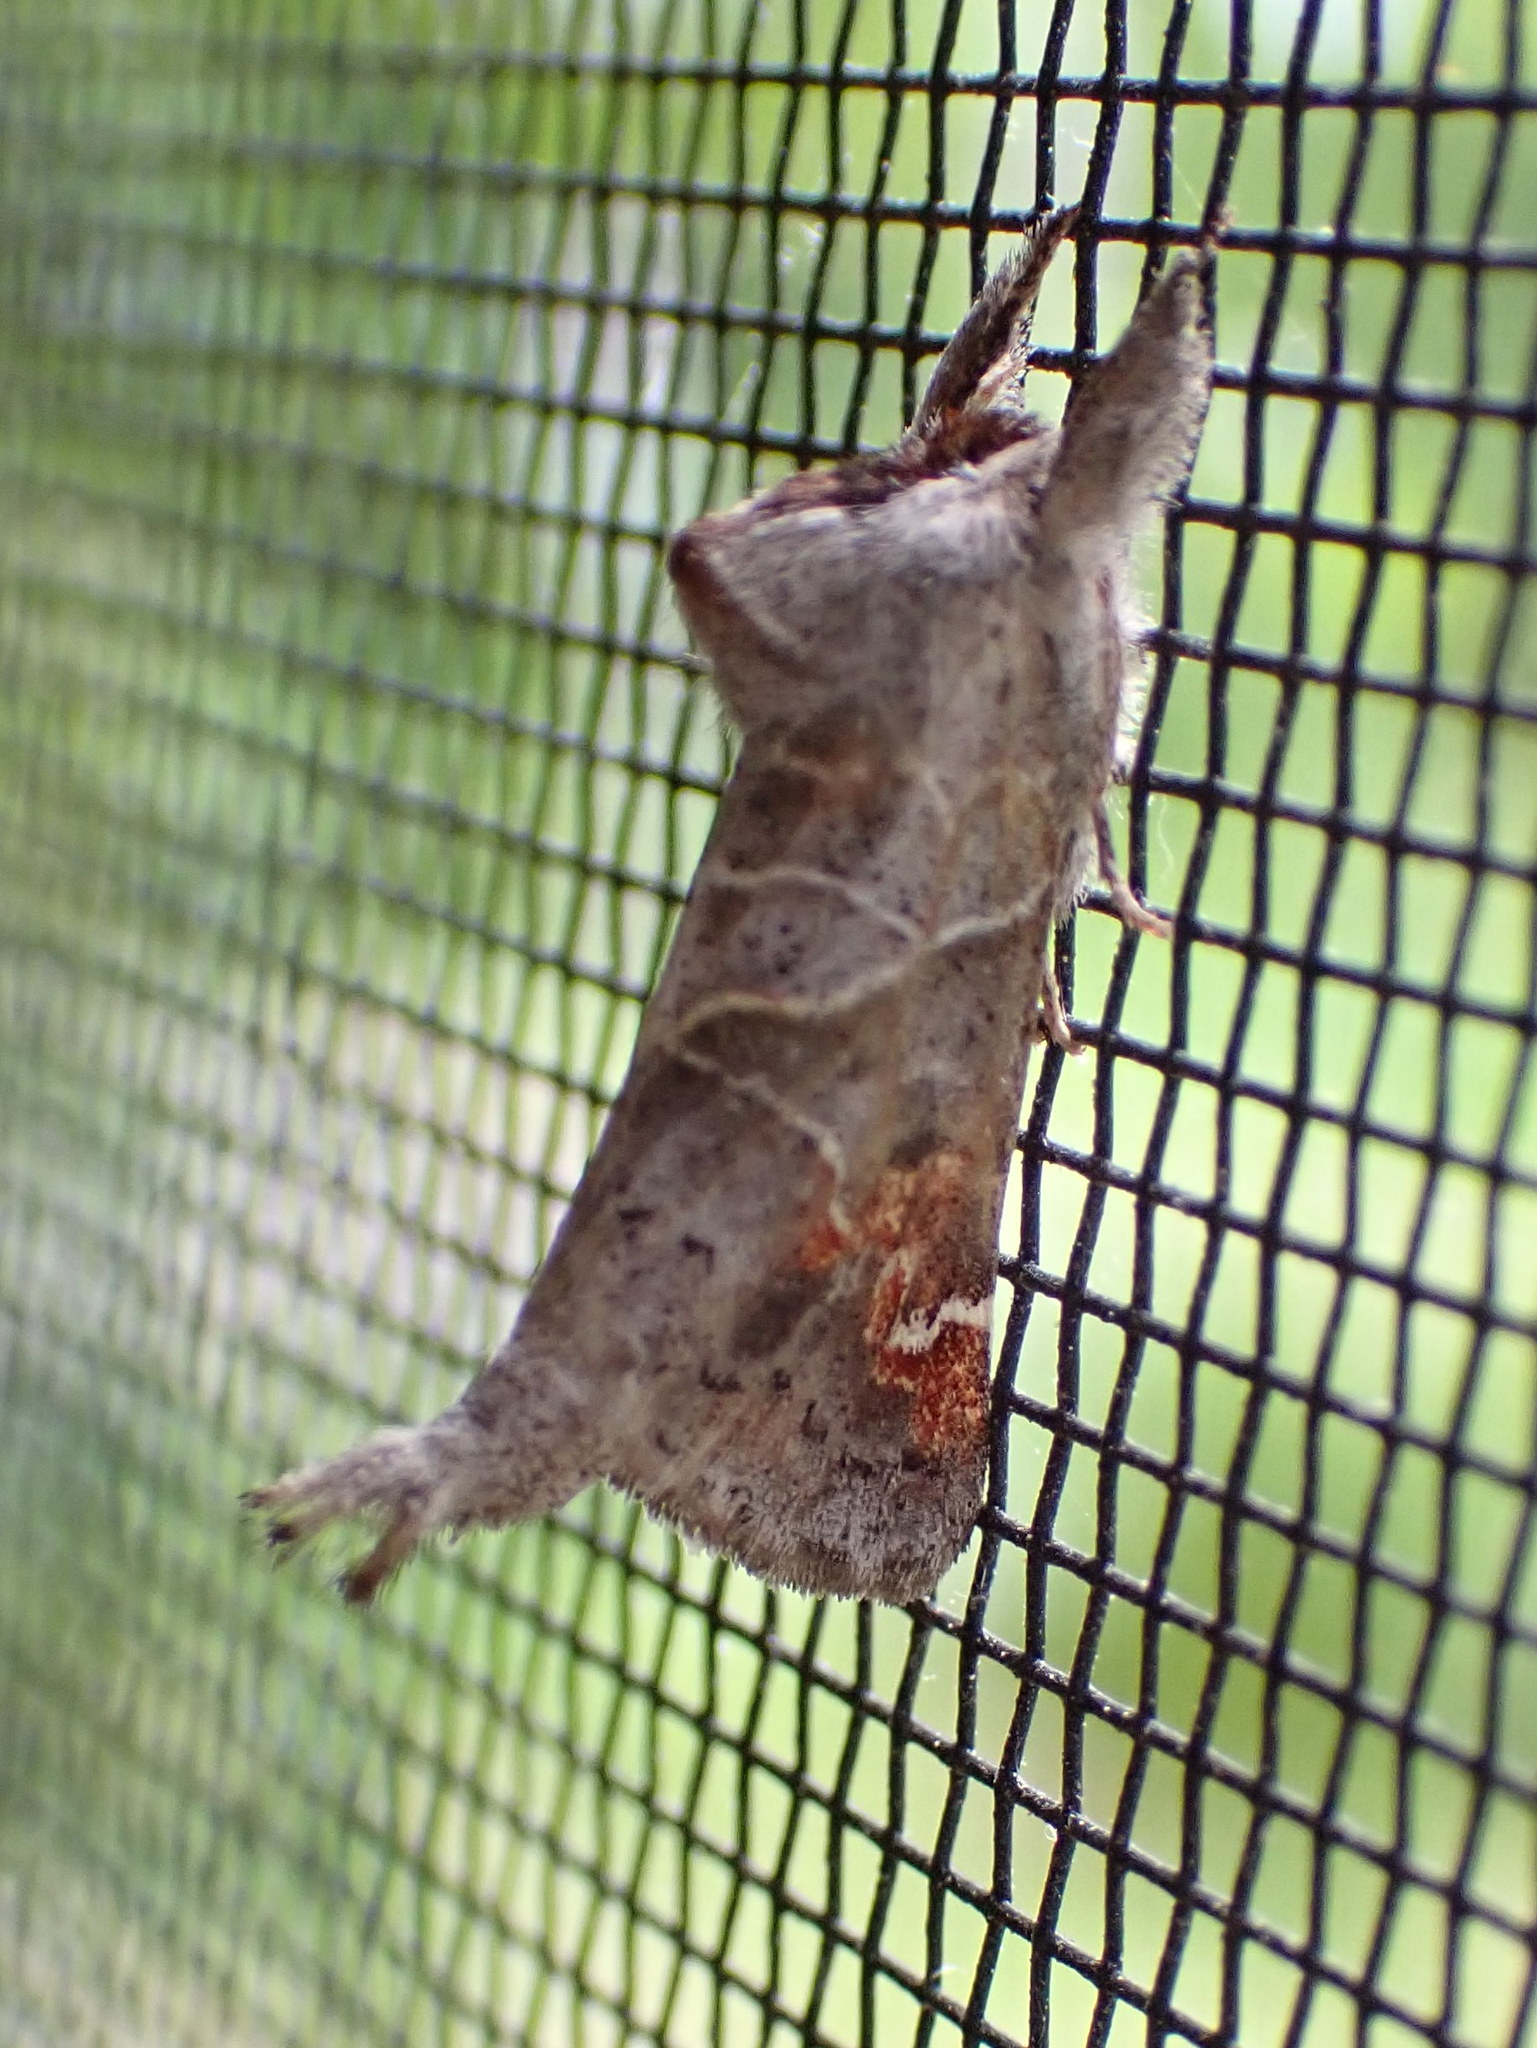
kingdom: Animalia
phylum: Arthropoda
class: Insecta
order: Lepidoptera
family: Notodontidae
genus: Clostera
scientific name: Clostera apicalis
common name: Apical prominent
